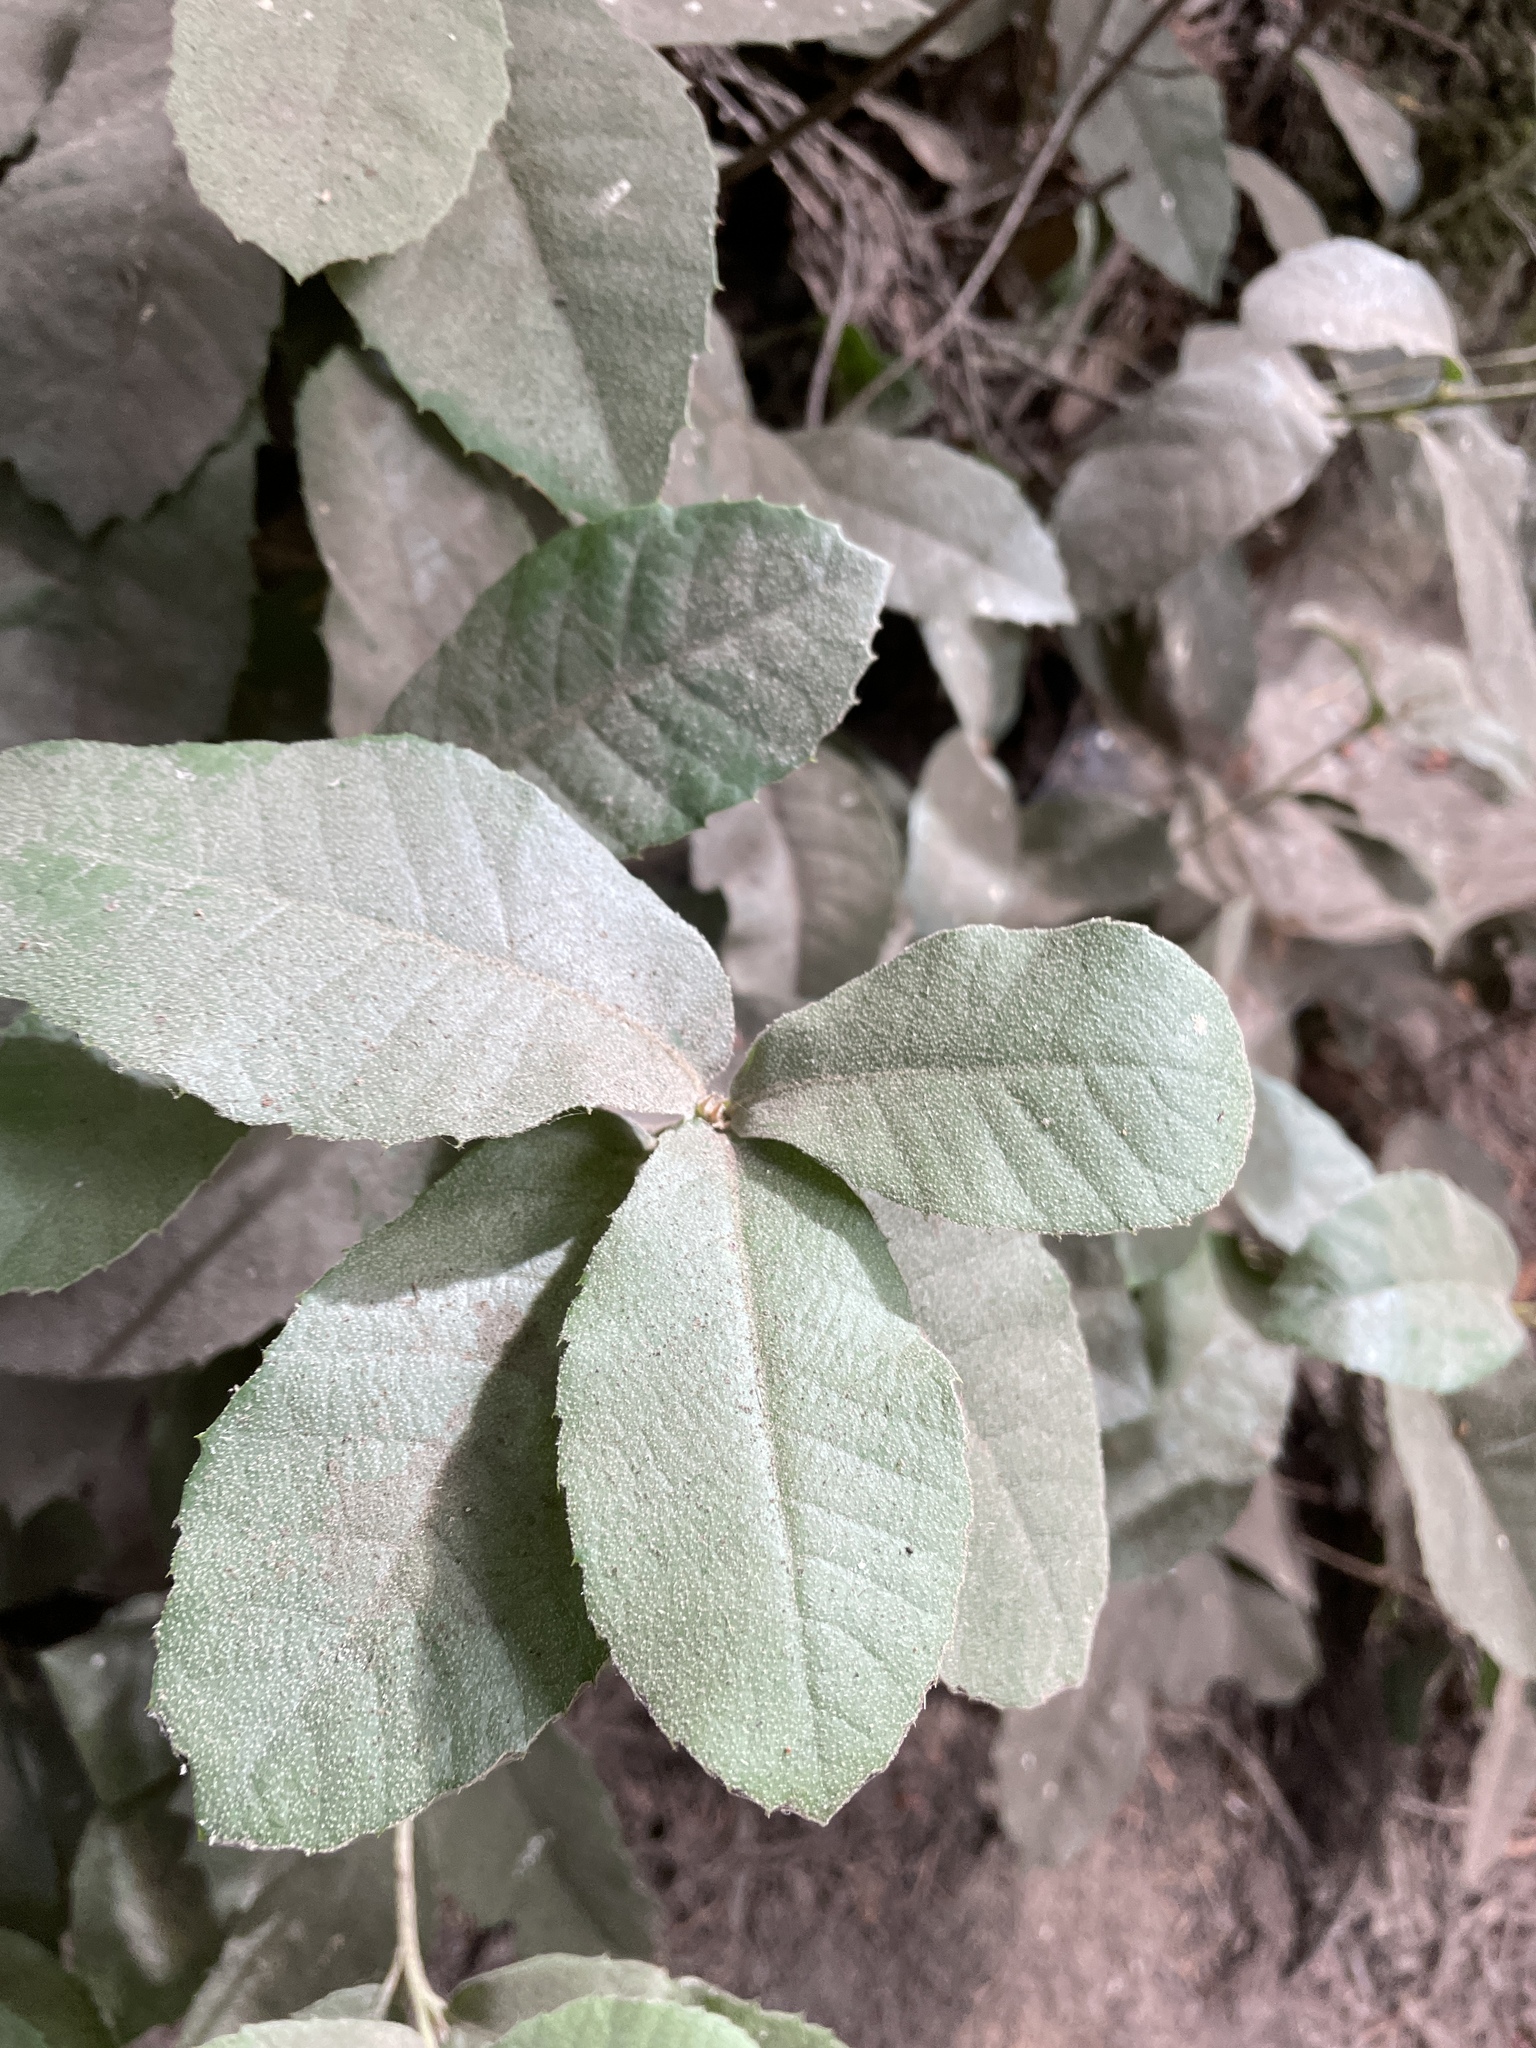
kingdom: Plantae
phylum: Tracheophyta
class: Magnoliopsida
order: Fagales
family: Fagaceae
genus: Notholithocarpus
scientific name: Notholithocarpus densiflorus
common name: Tan bark oak
